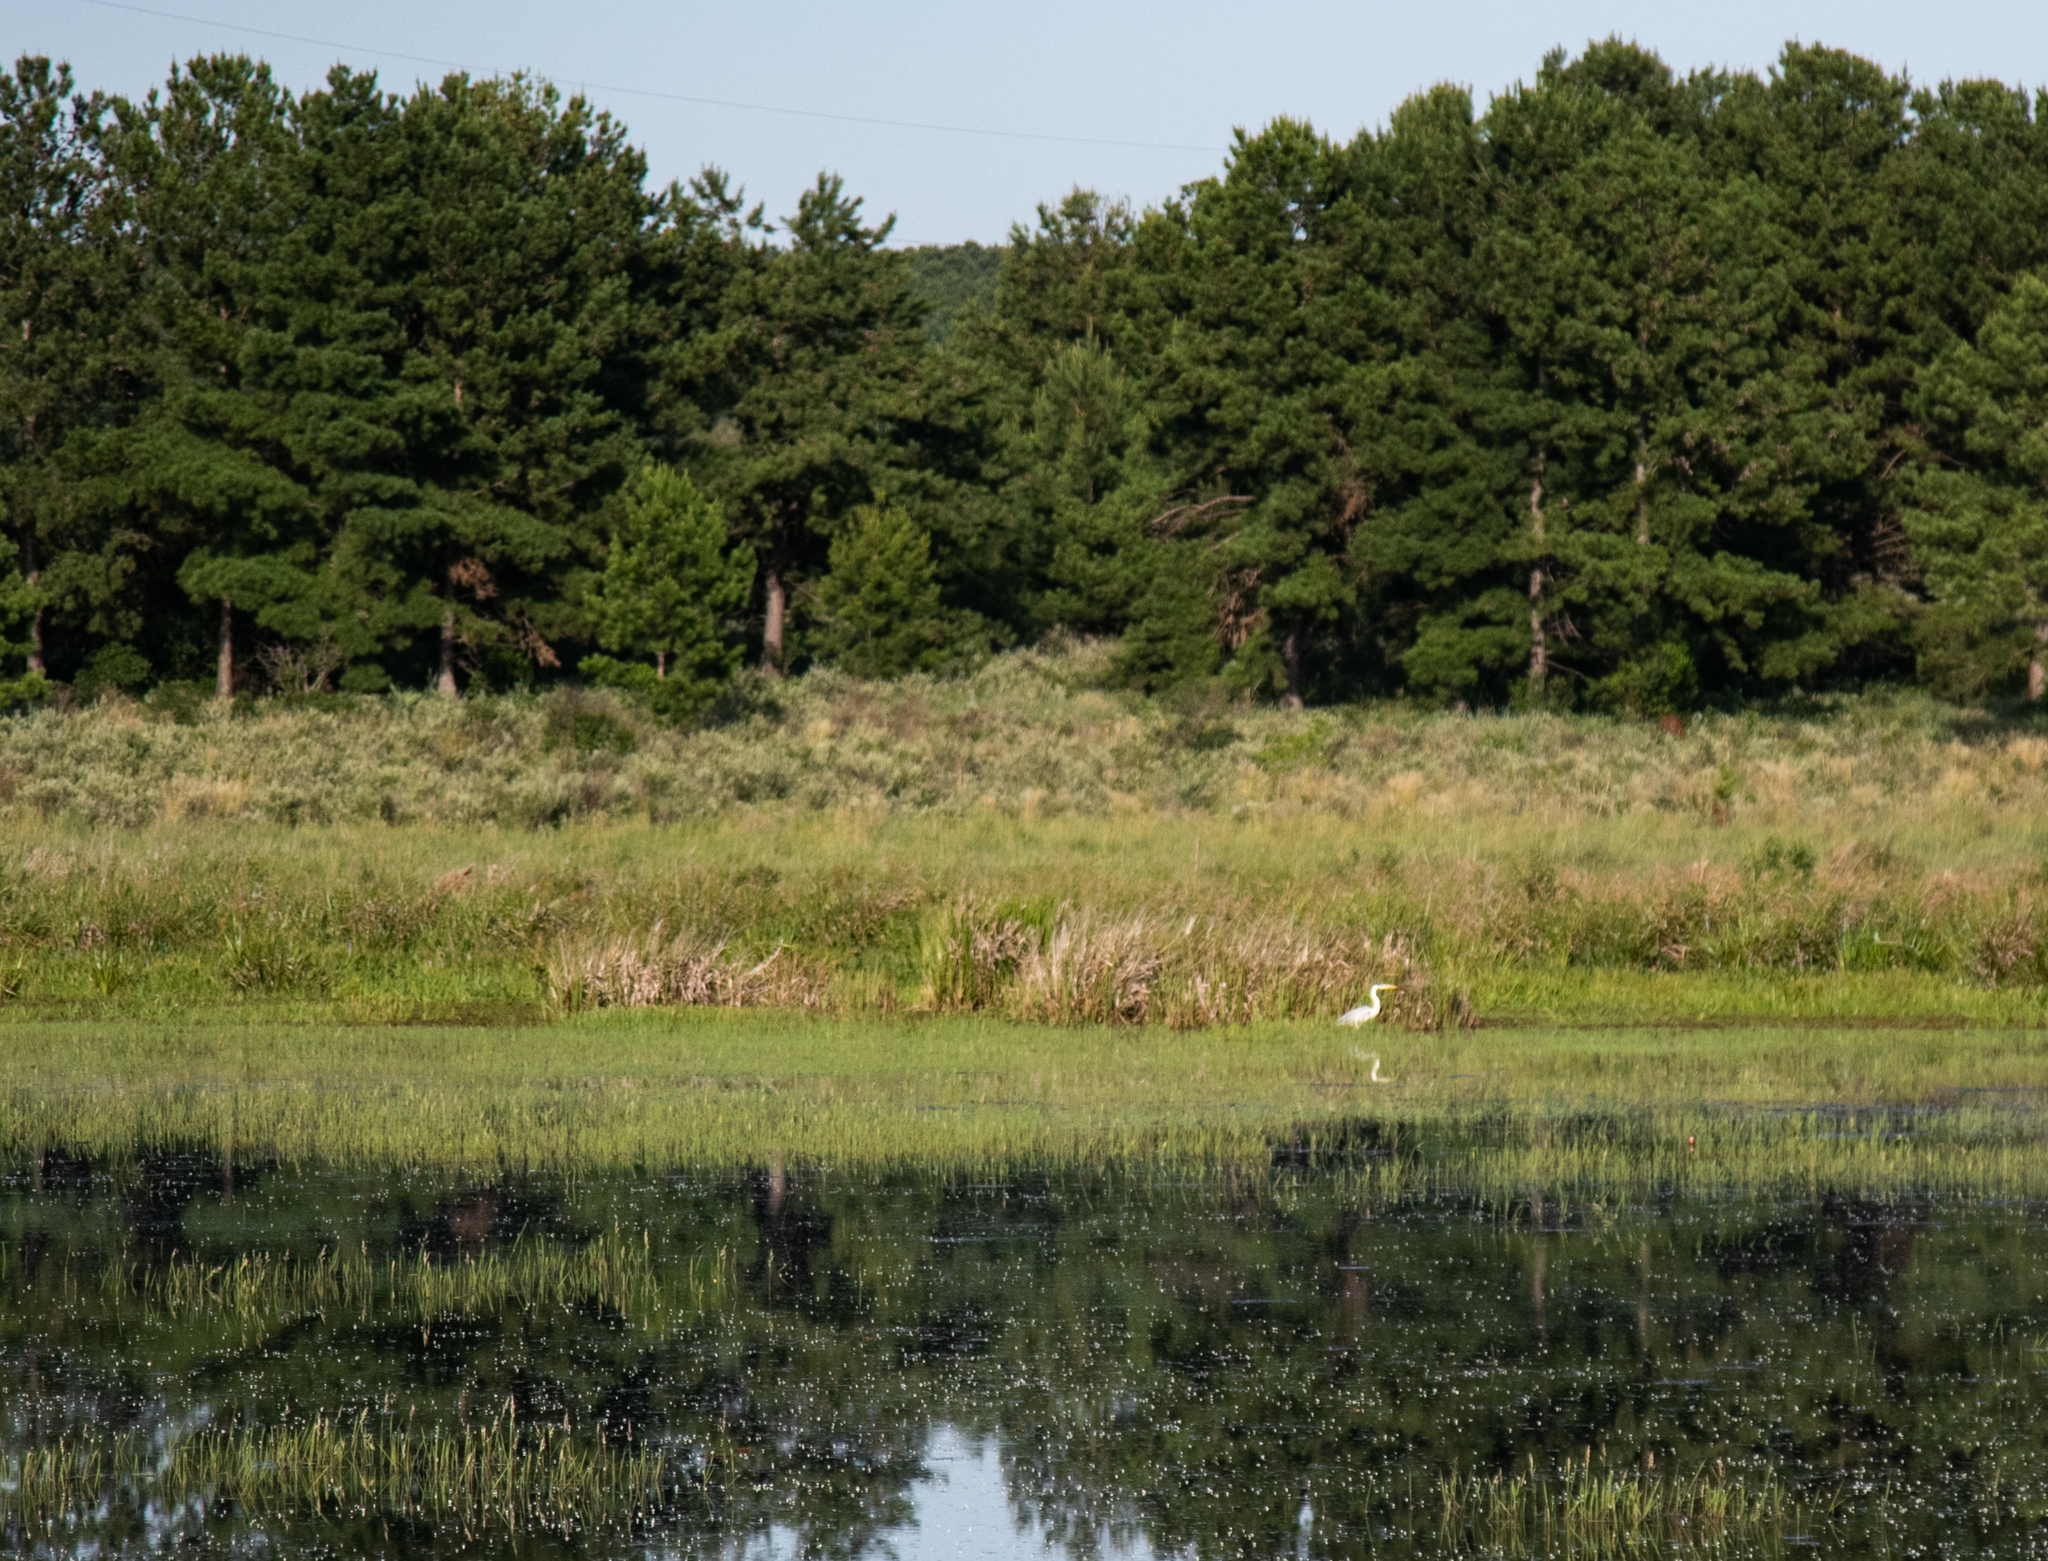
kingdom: Animalia
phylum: Chordata
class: Aves
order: Pelecaniformes
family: Ardeidae
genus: Ardea
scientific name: Ardea cocoi
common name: Cocoi heron
